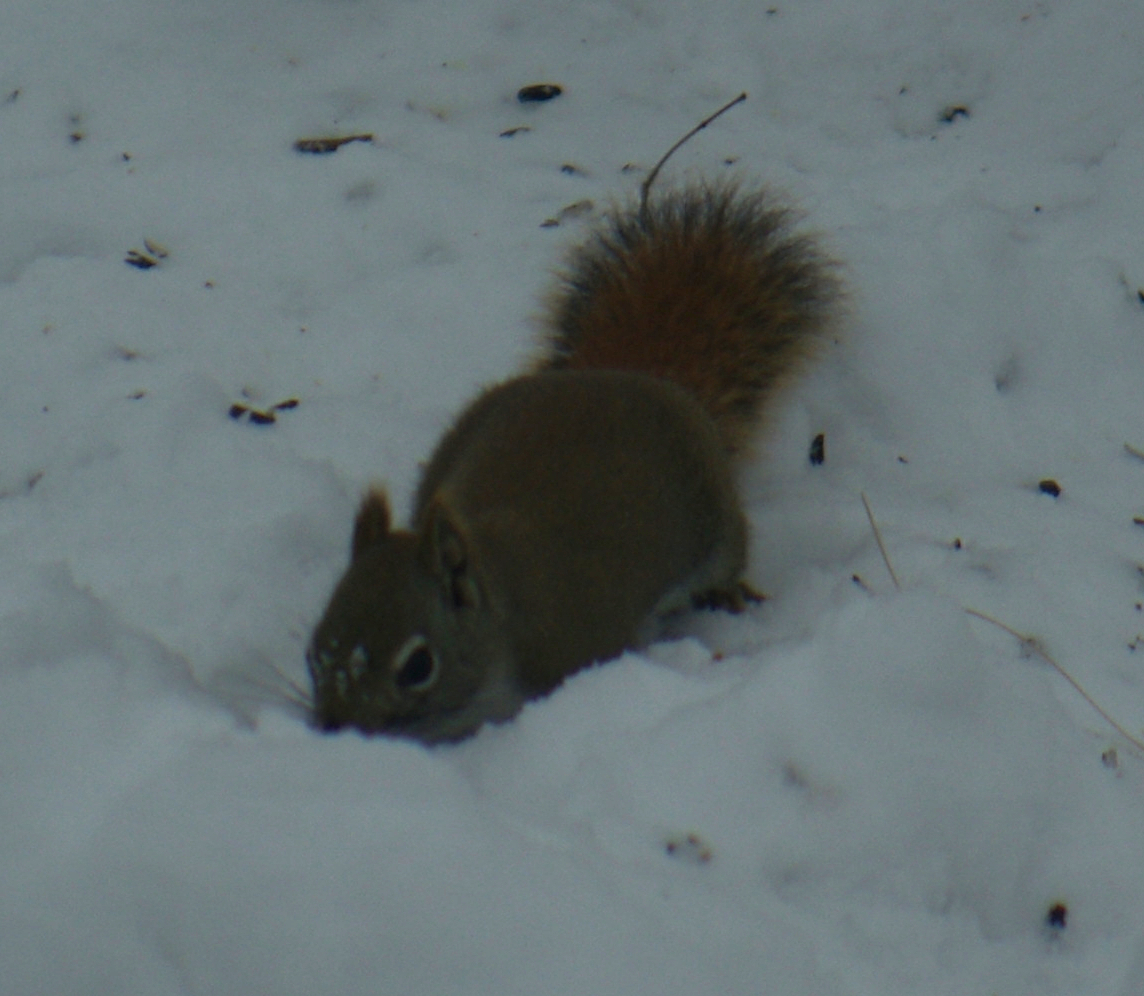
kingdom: Animalia
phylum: Chordata
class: Mammalia
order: Rodentia
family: Sciuridae
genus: Tamiasciurus
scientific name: Tamiasciurus hudsonicus
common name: Red squirrel
